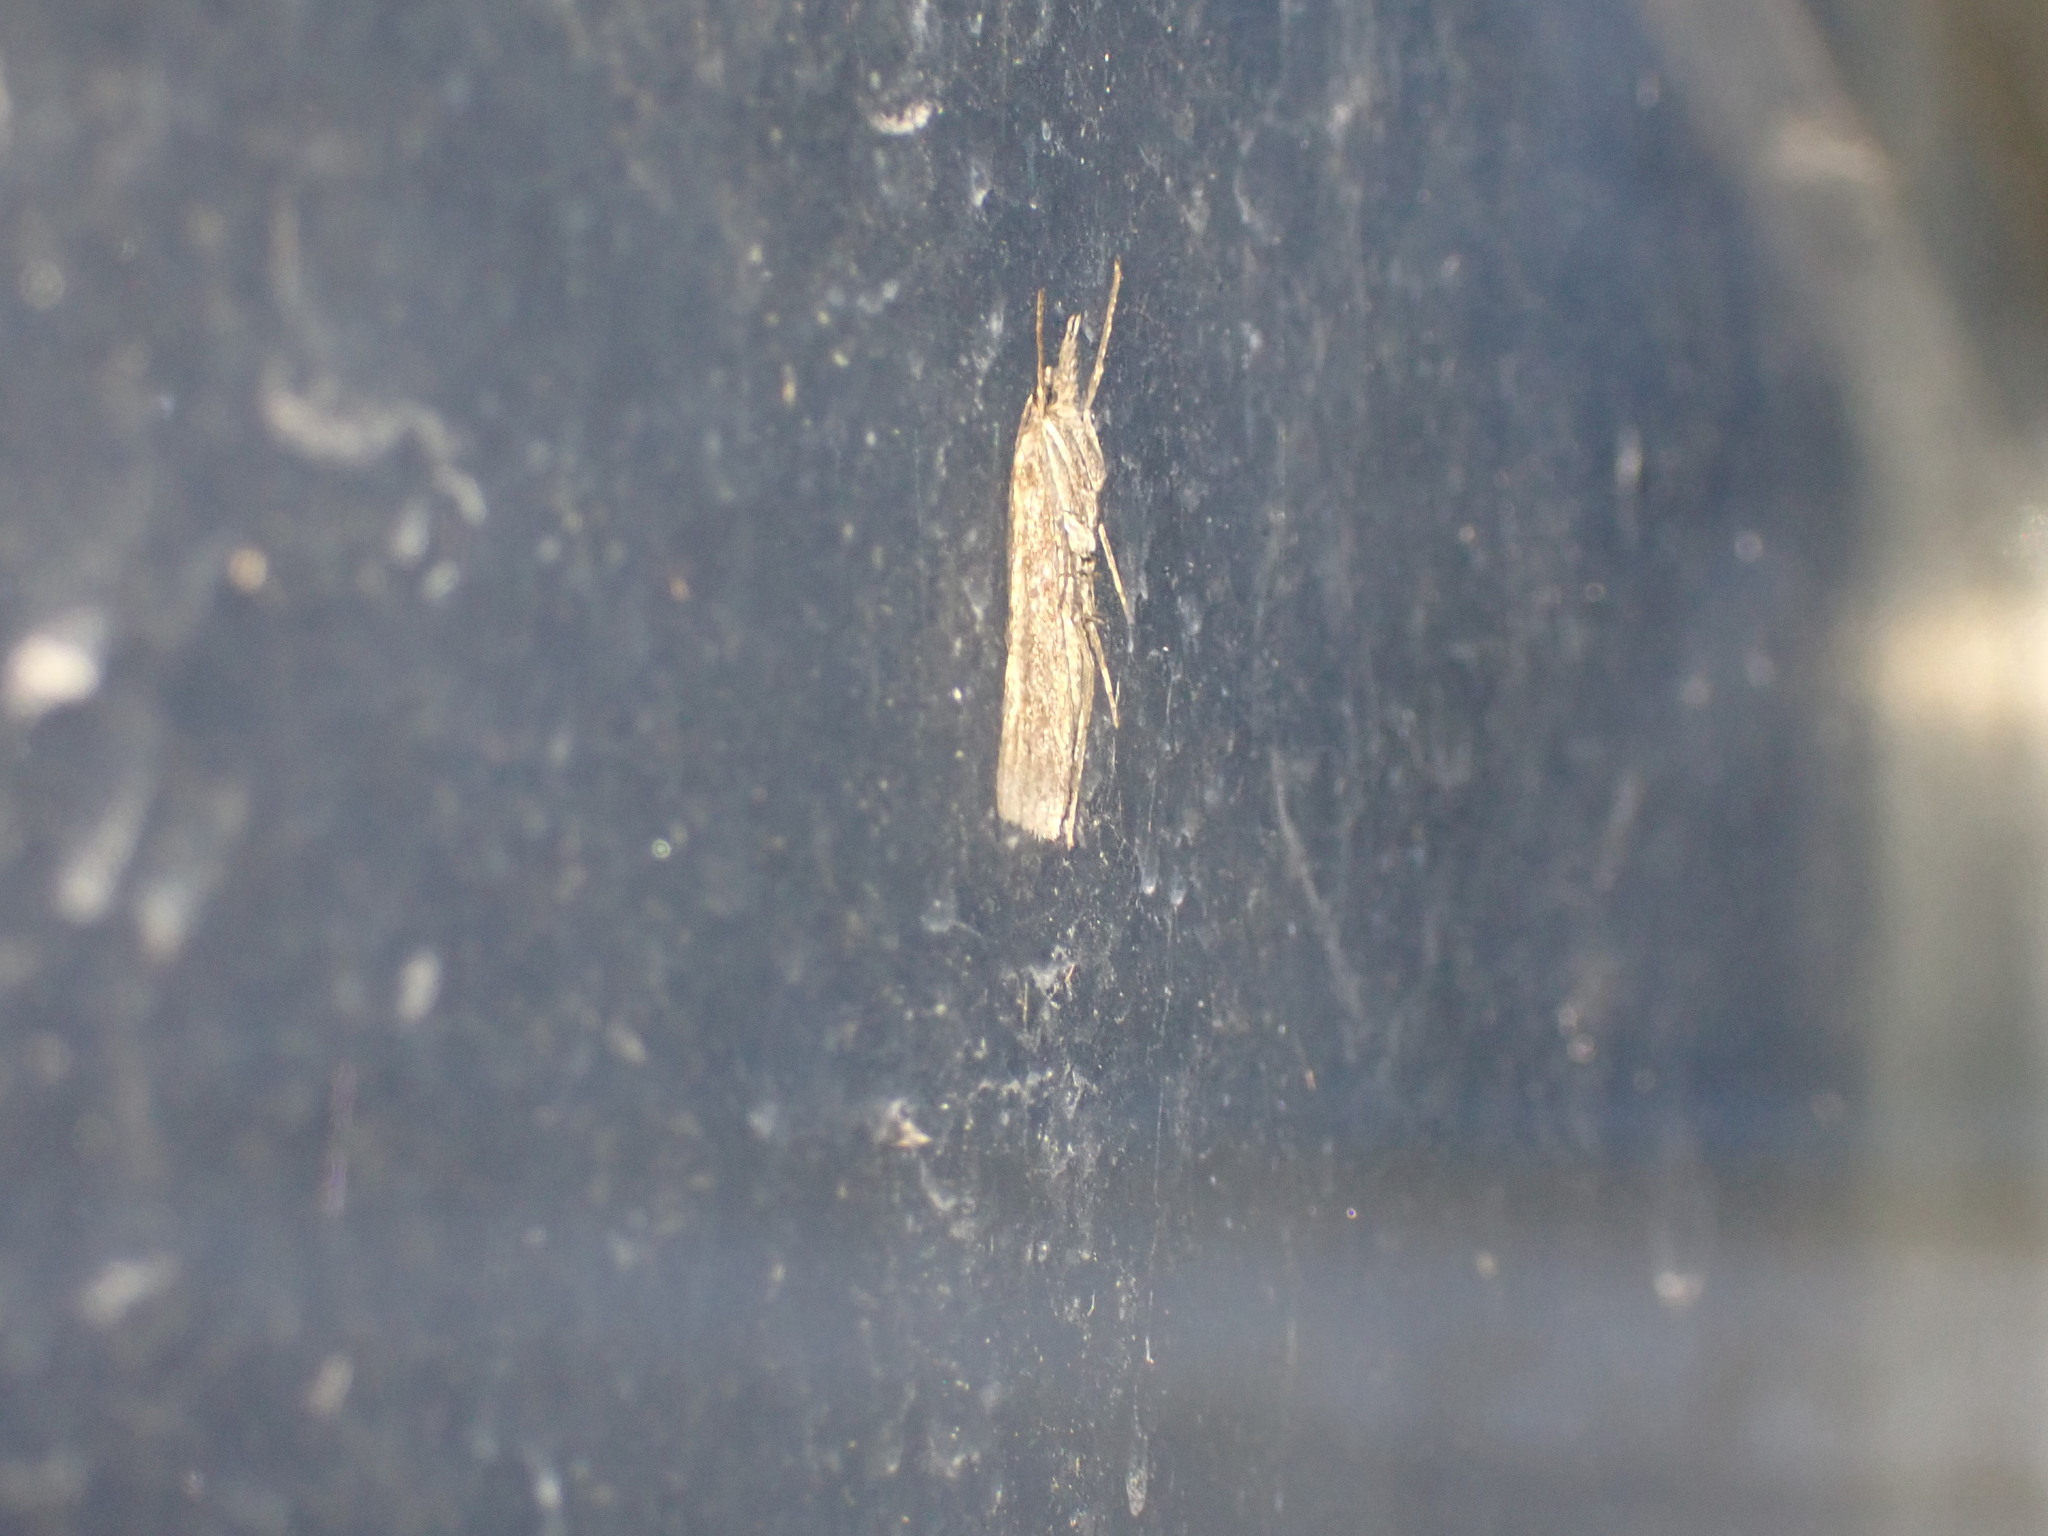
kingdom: Animalia
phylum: Arthropoda
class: Insecta
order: Lepidoptera
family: Crambidae
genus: Agriphila
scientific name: Agriphila tristellus
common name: Common grass-veneer
